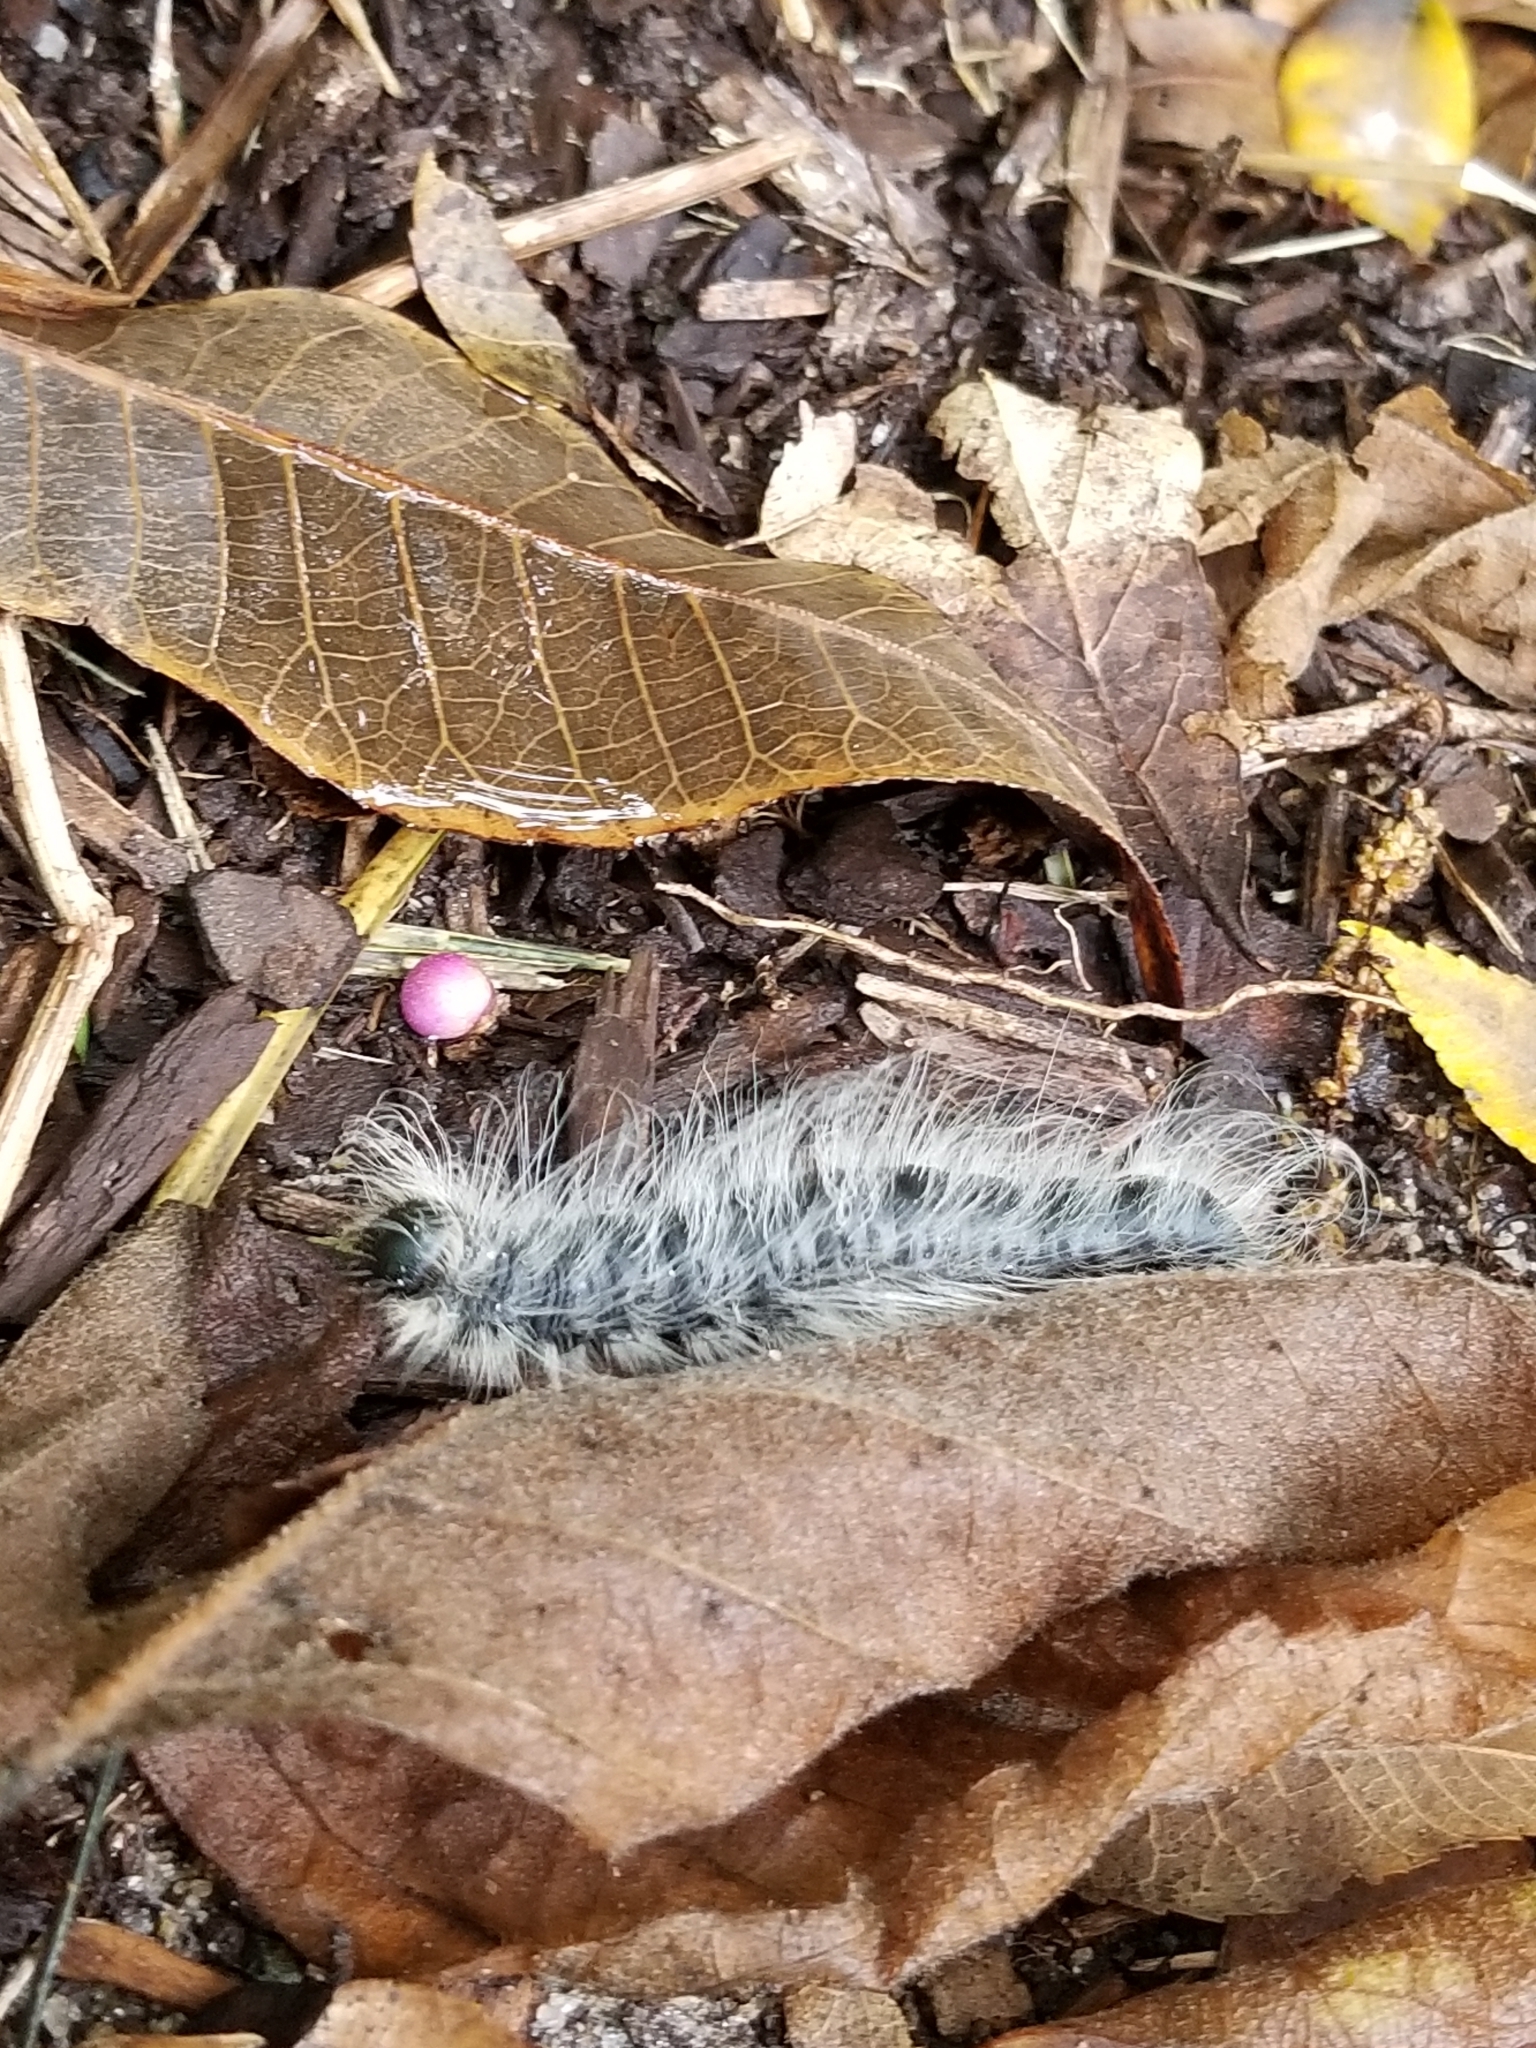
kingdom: Animalia
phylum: Arthropoda
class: Insecta
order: Lepidoptera
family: Notodontidae
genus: Datana
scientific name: Datana integerrima
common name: Walnut caterpillar
